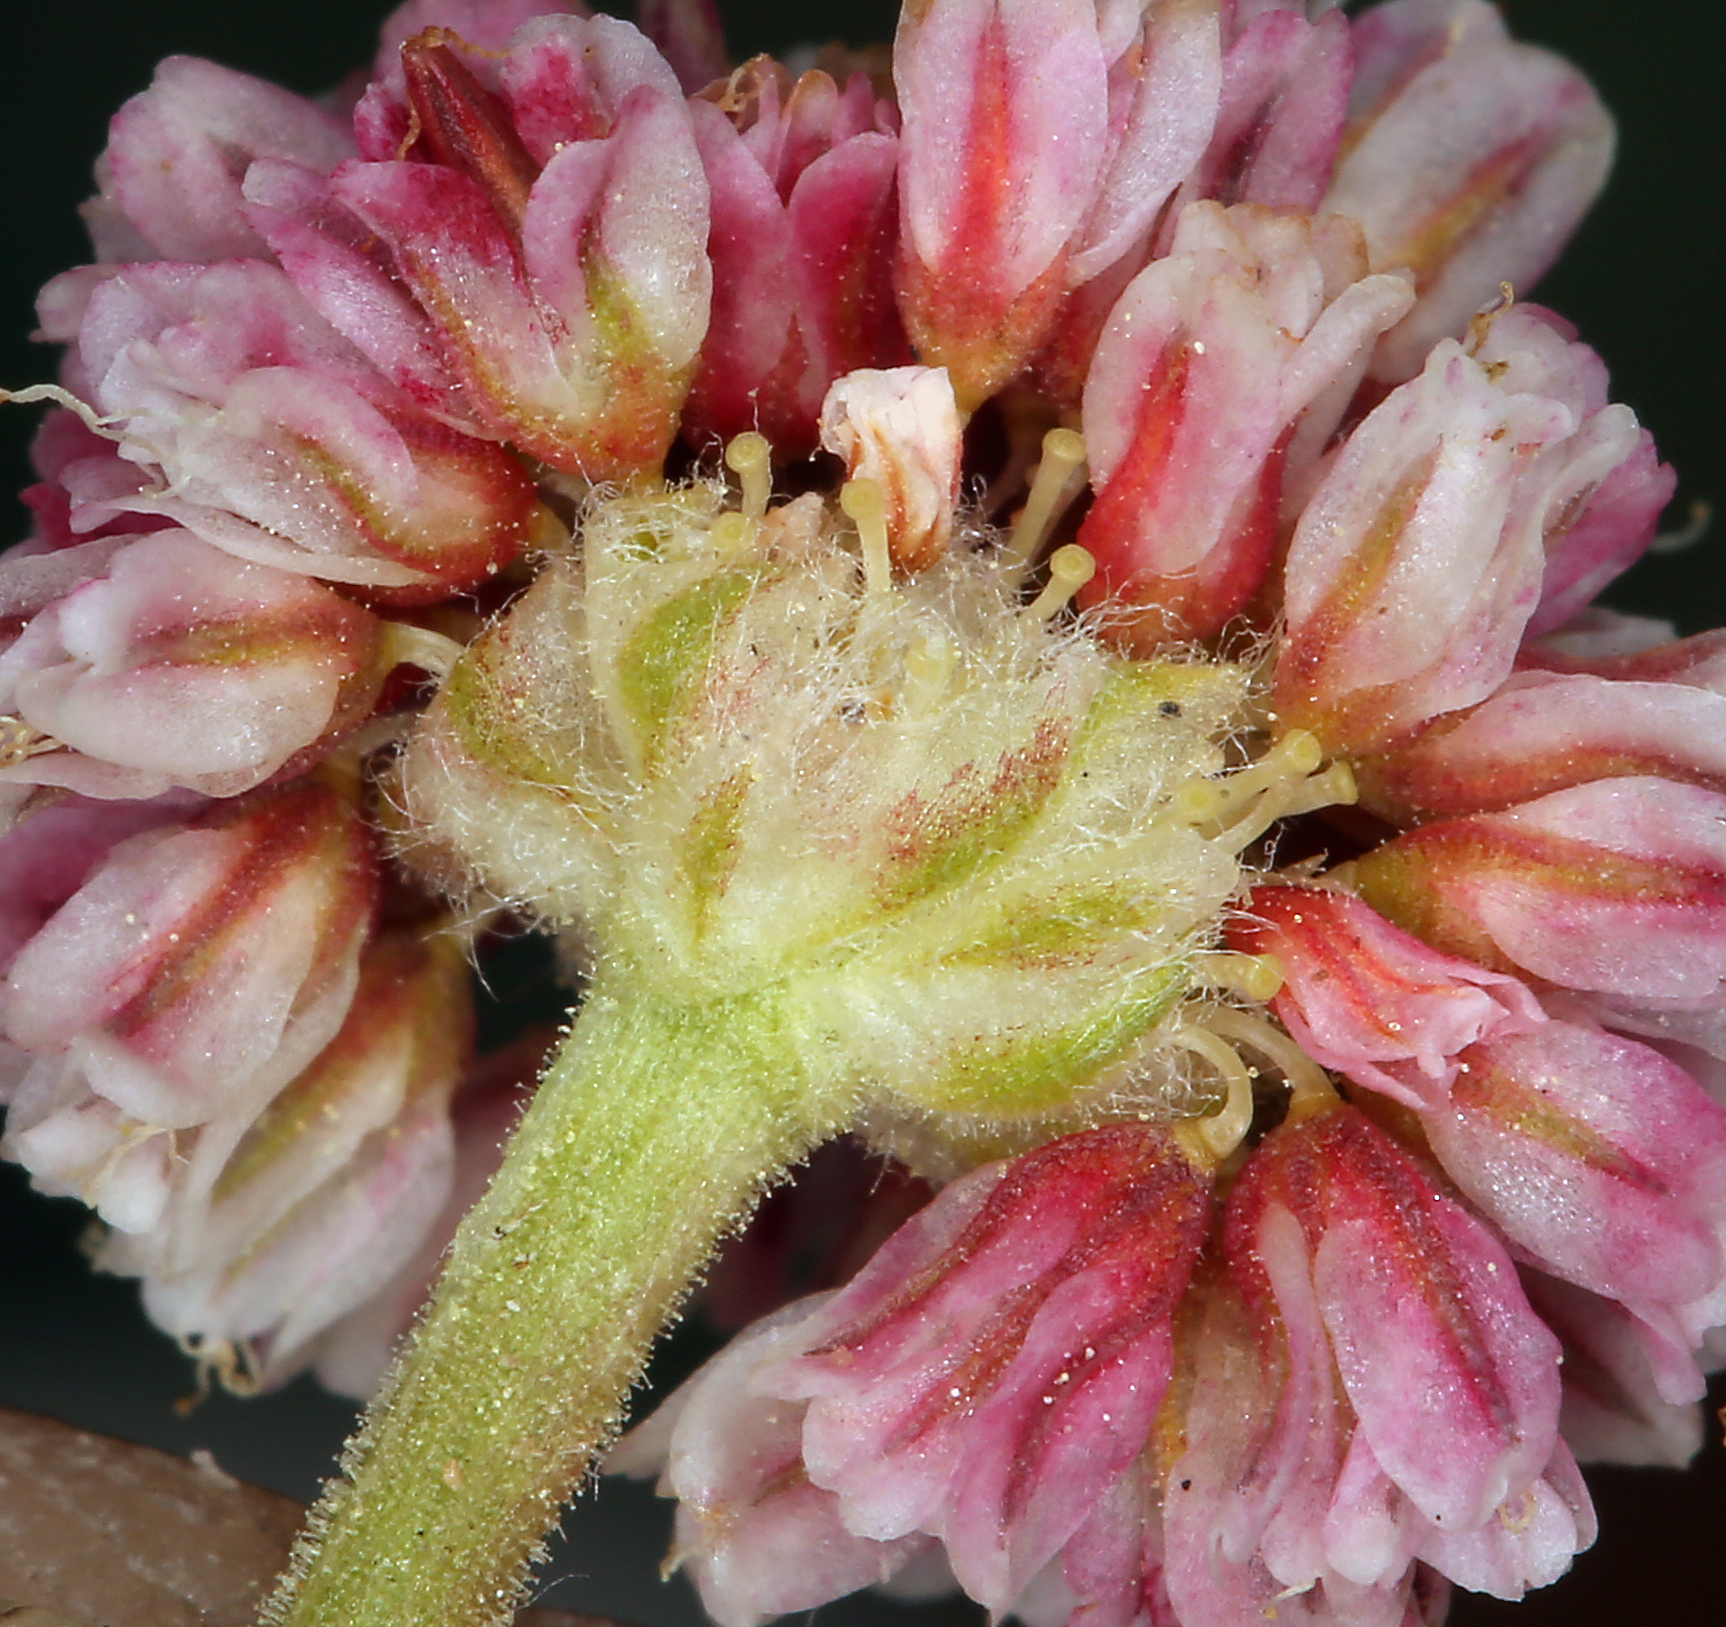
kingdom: Plantae
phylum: Tracheophyta
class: Magnoliopsida
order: Caryophyllales
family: Polygonaceae
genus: Eriogonum
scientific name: Eriogonum gracilipes
